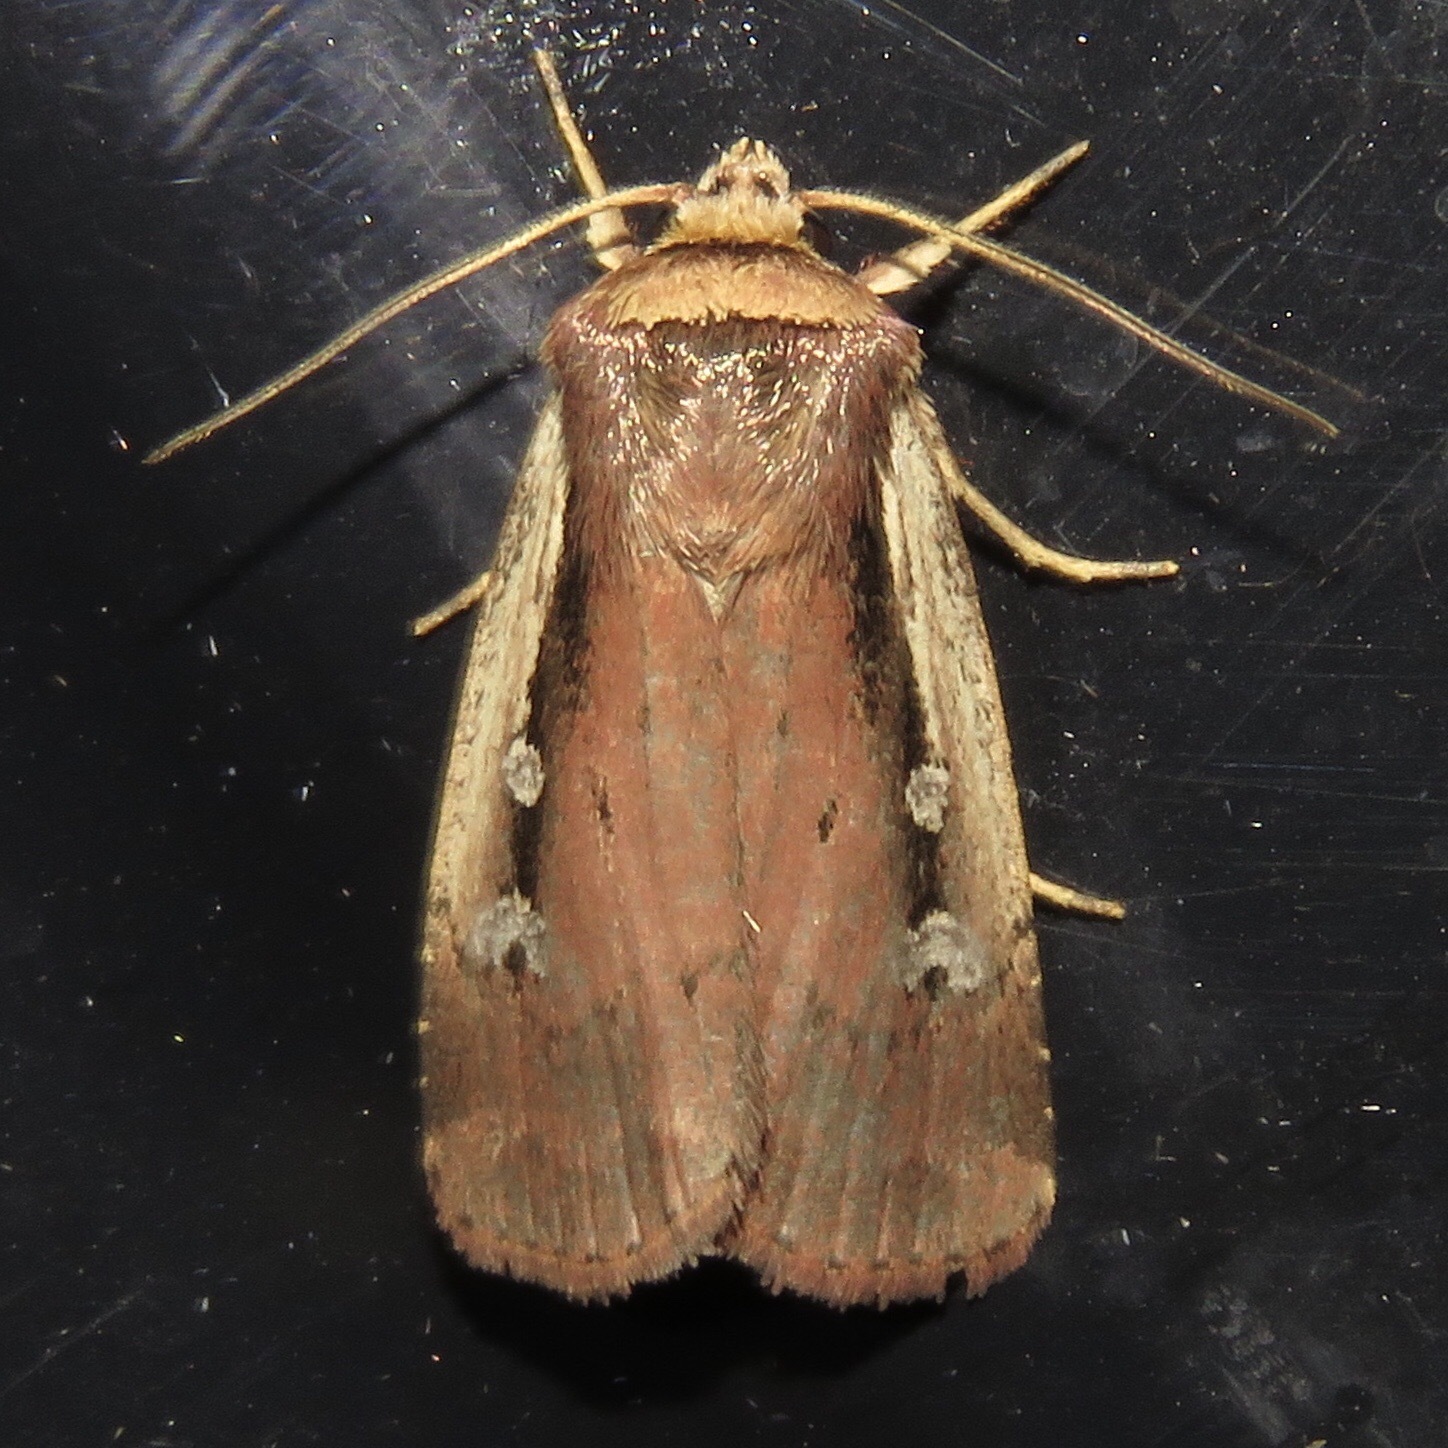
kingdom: Animalia
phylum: Arthropoda
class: Insecta
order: Lepidoptera
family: Noctuidae
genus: Ochropleura
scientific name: Ochropleura implecta
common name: Flame-shouldered dart
